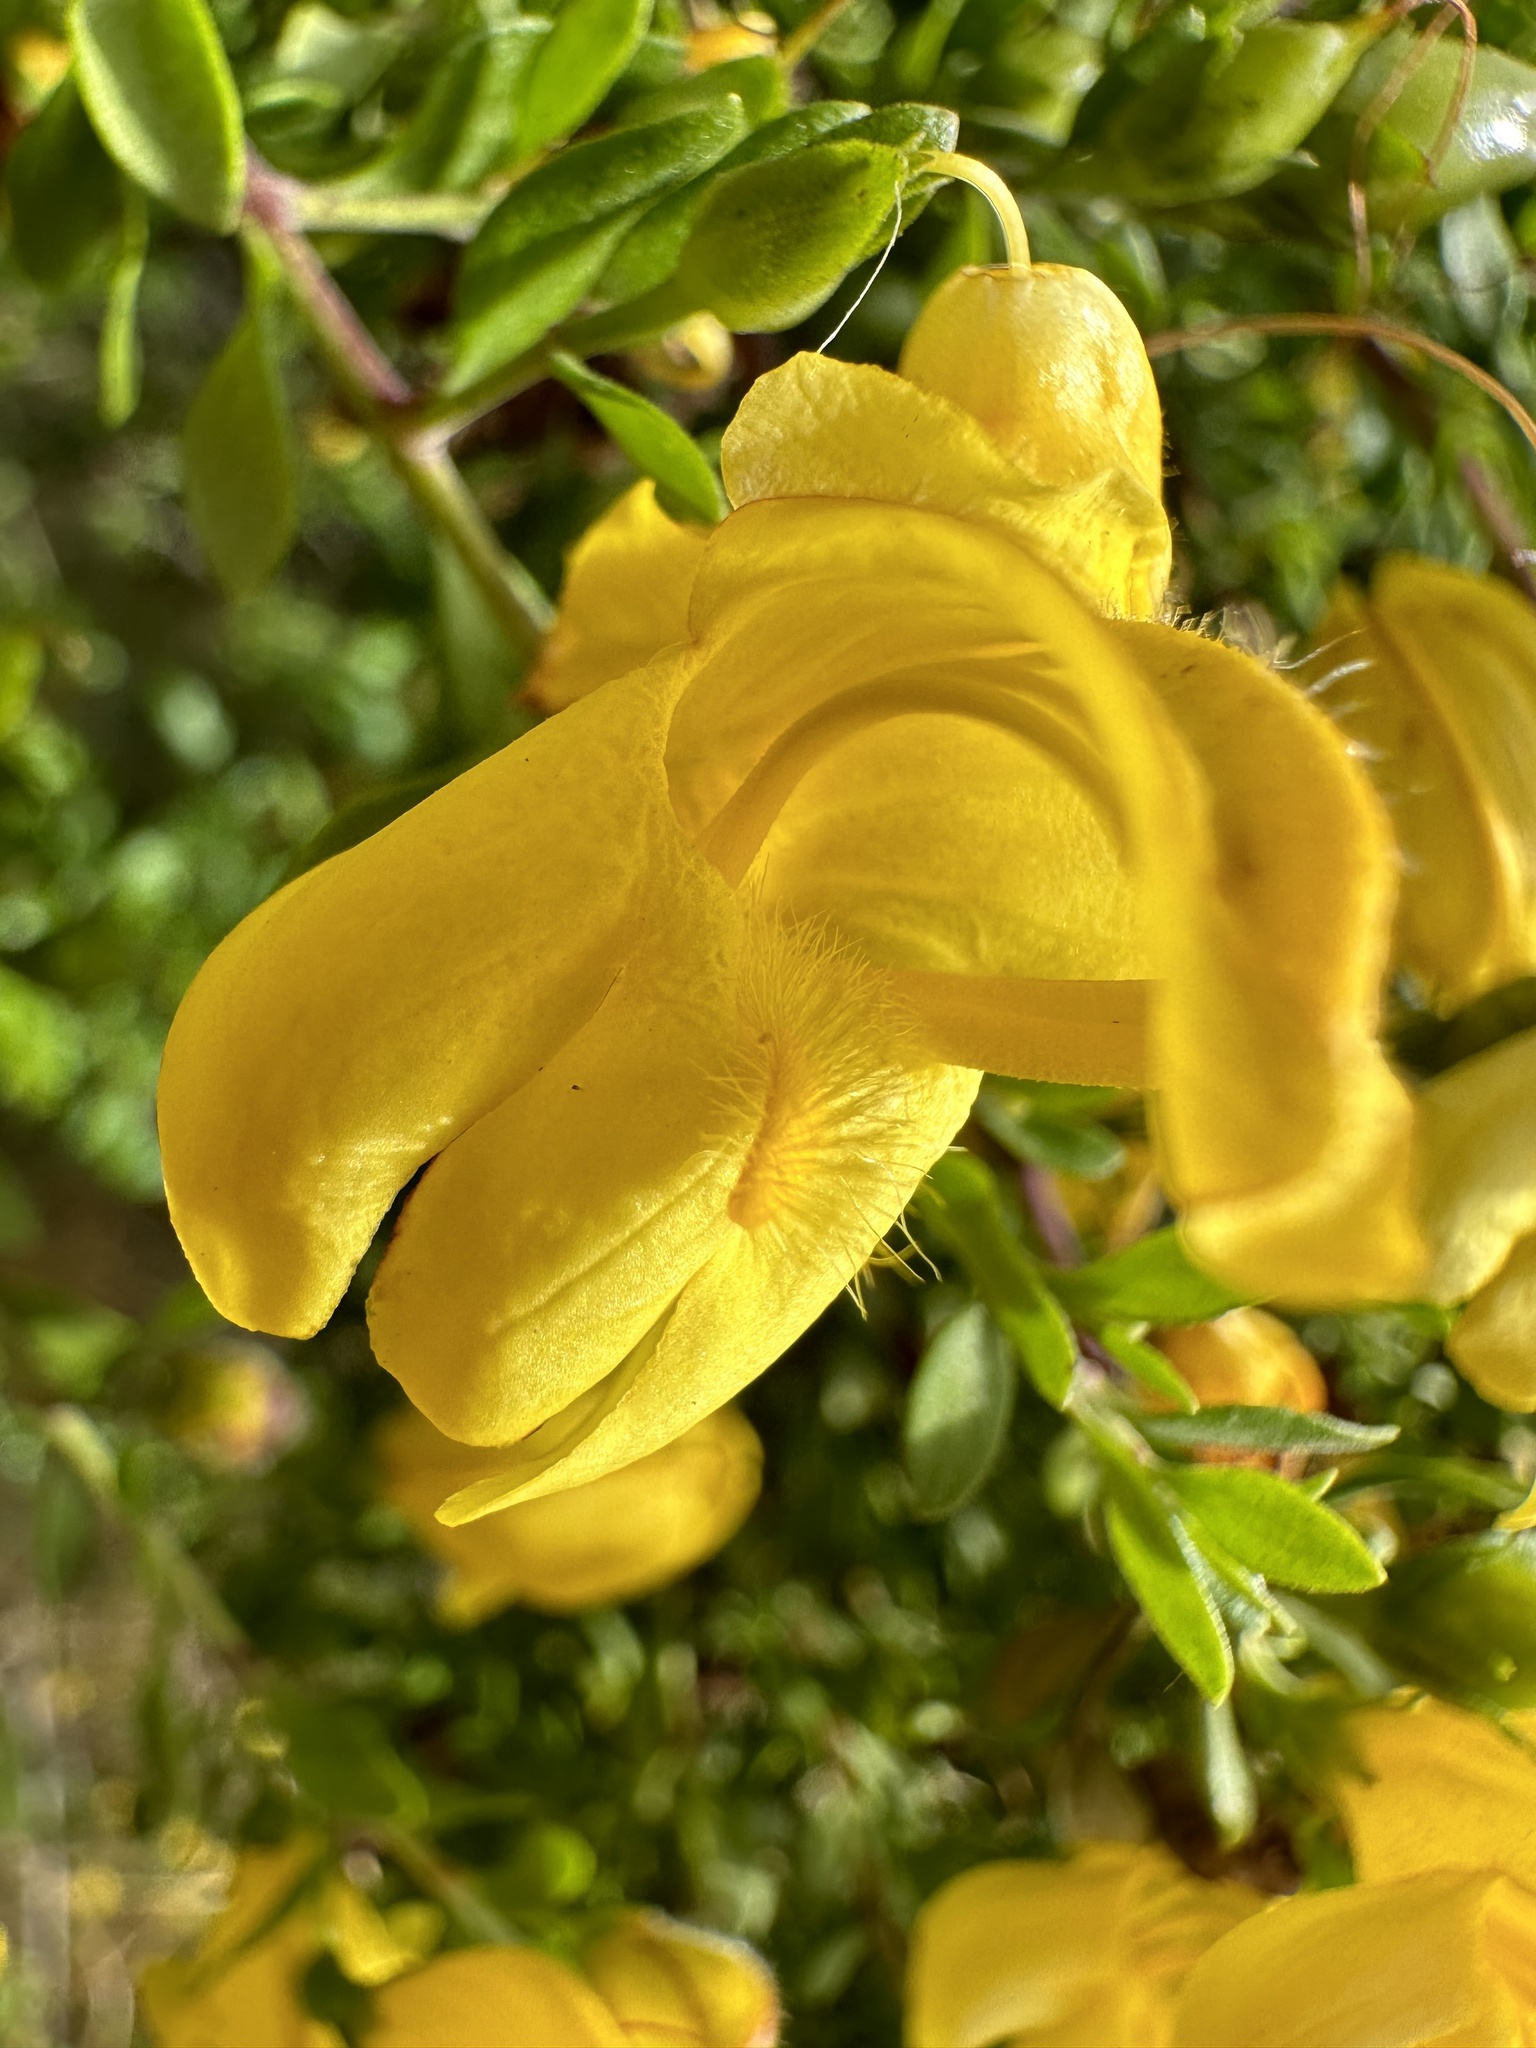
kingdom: Plantae
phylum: Tracheophyta
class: Magnoliopsida
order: Lamiales
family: Plantaginaceae
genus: Keckiella
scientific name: Keckiella antirrhinoides
